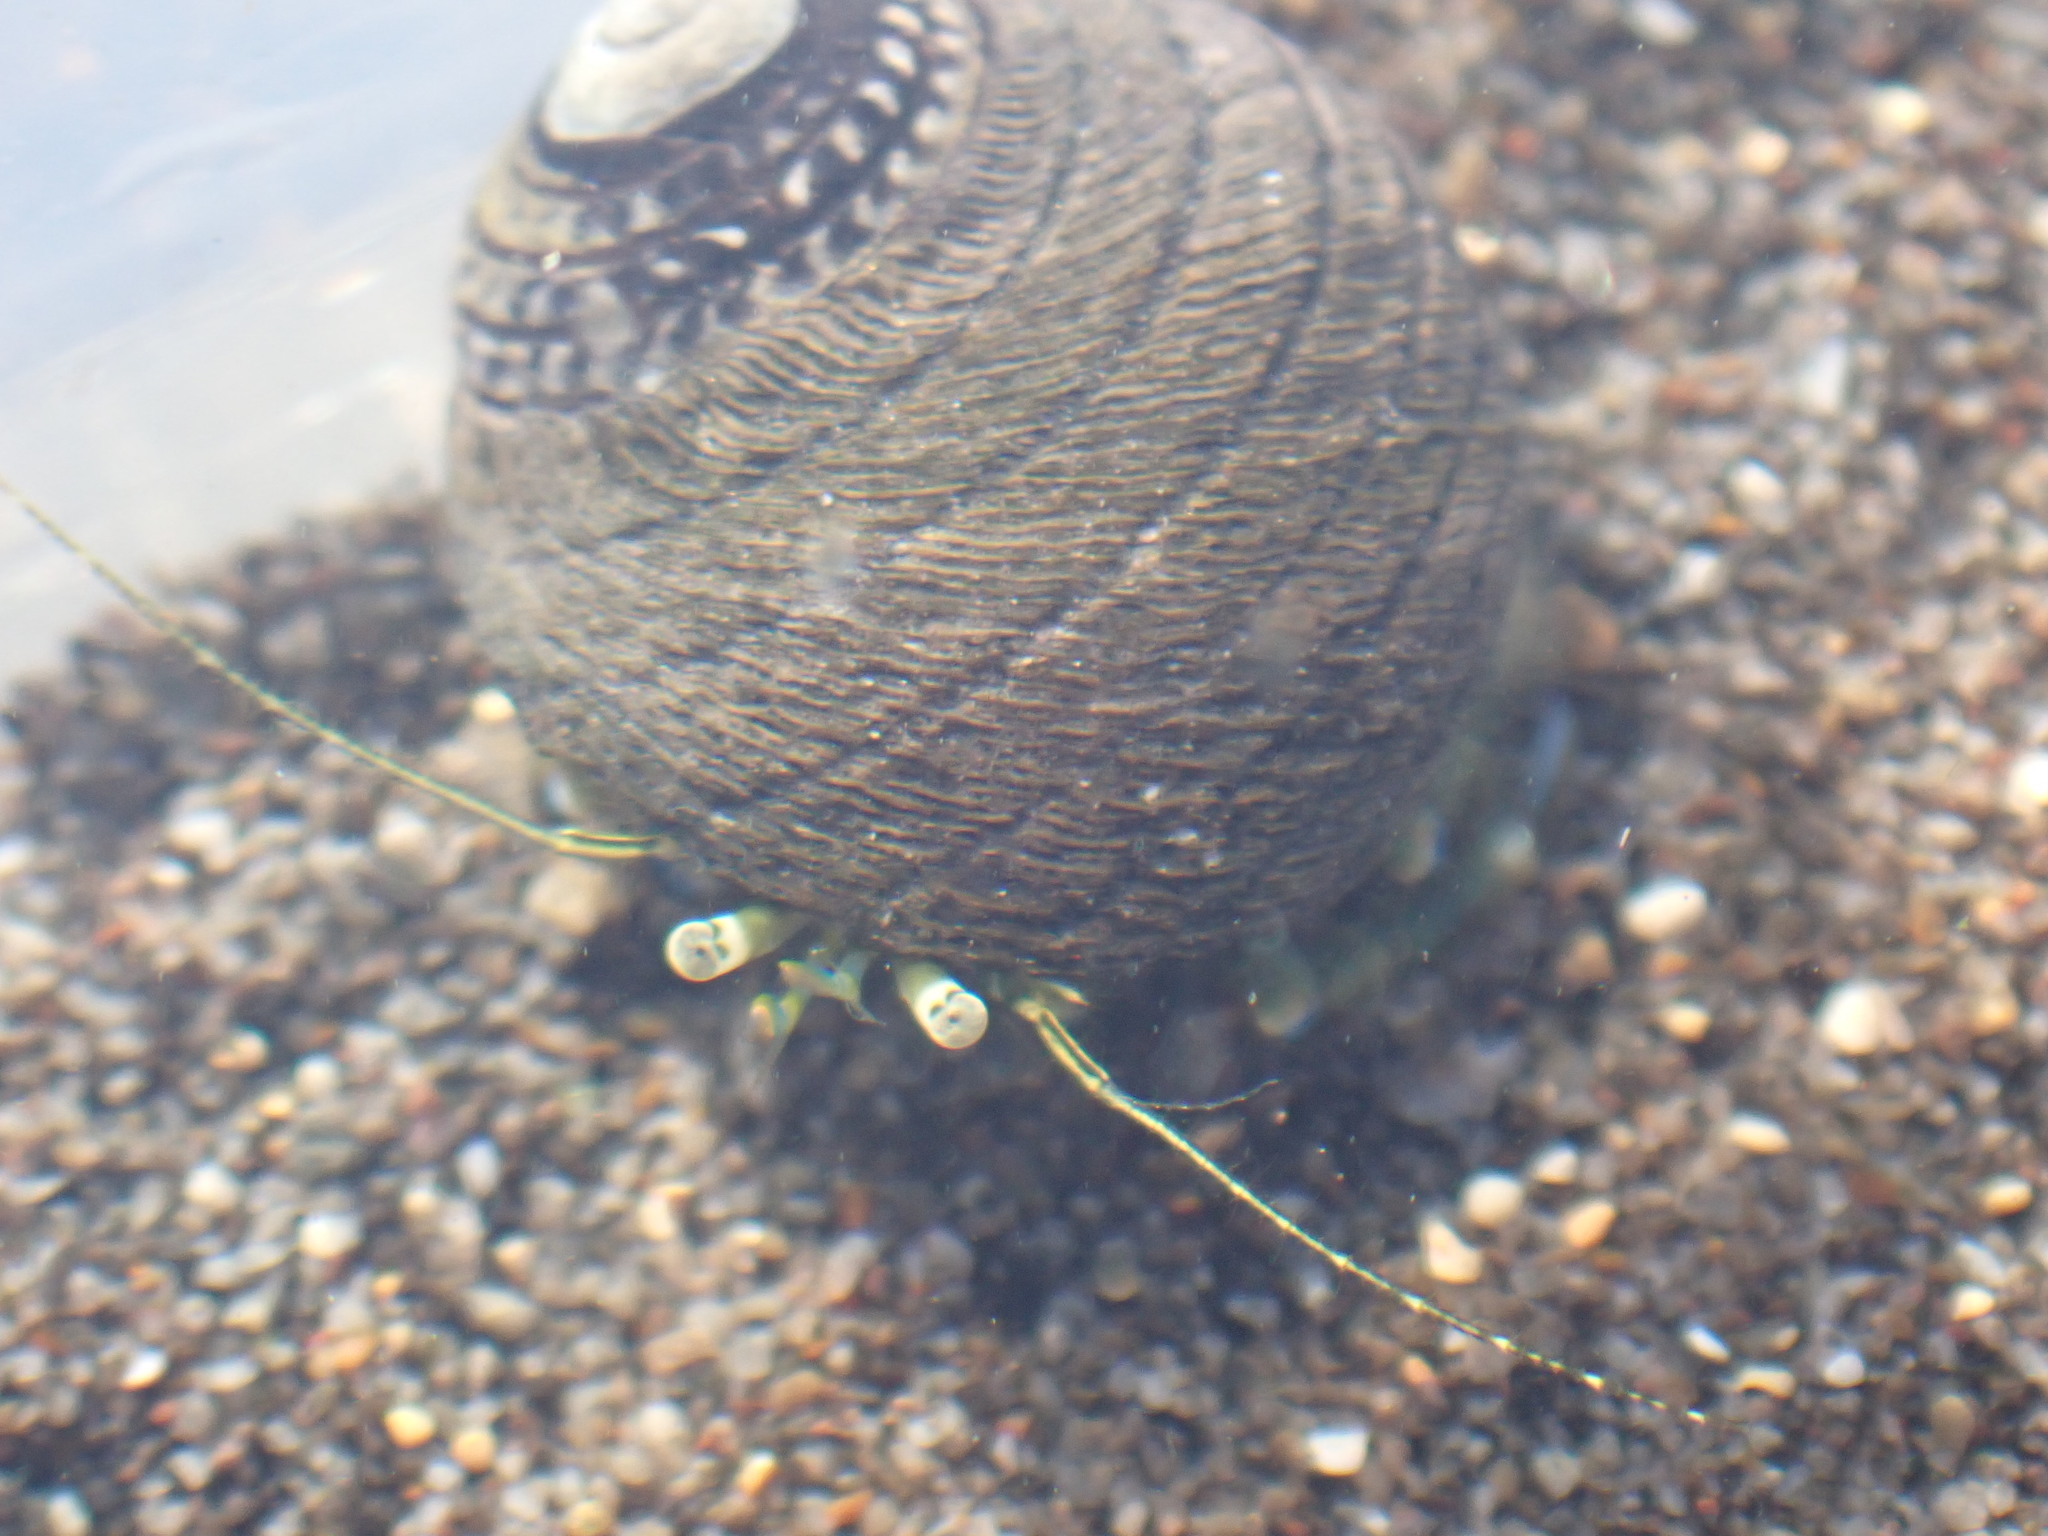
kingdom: Animalia
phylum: Arthropoda
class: Malacostraca
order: Decapoda
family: Paguridae
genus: Pagurus
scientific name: Pagurus novizealandiae
